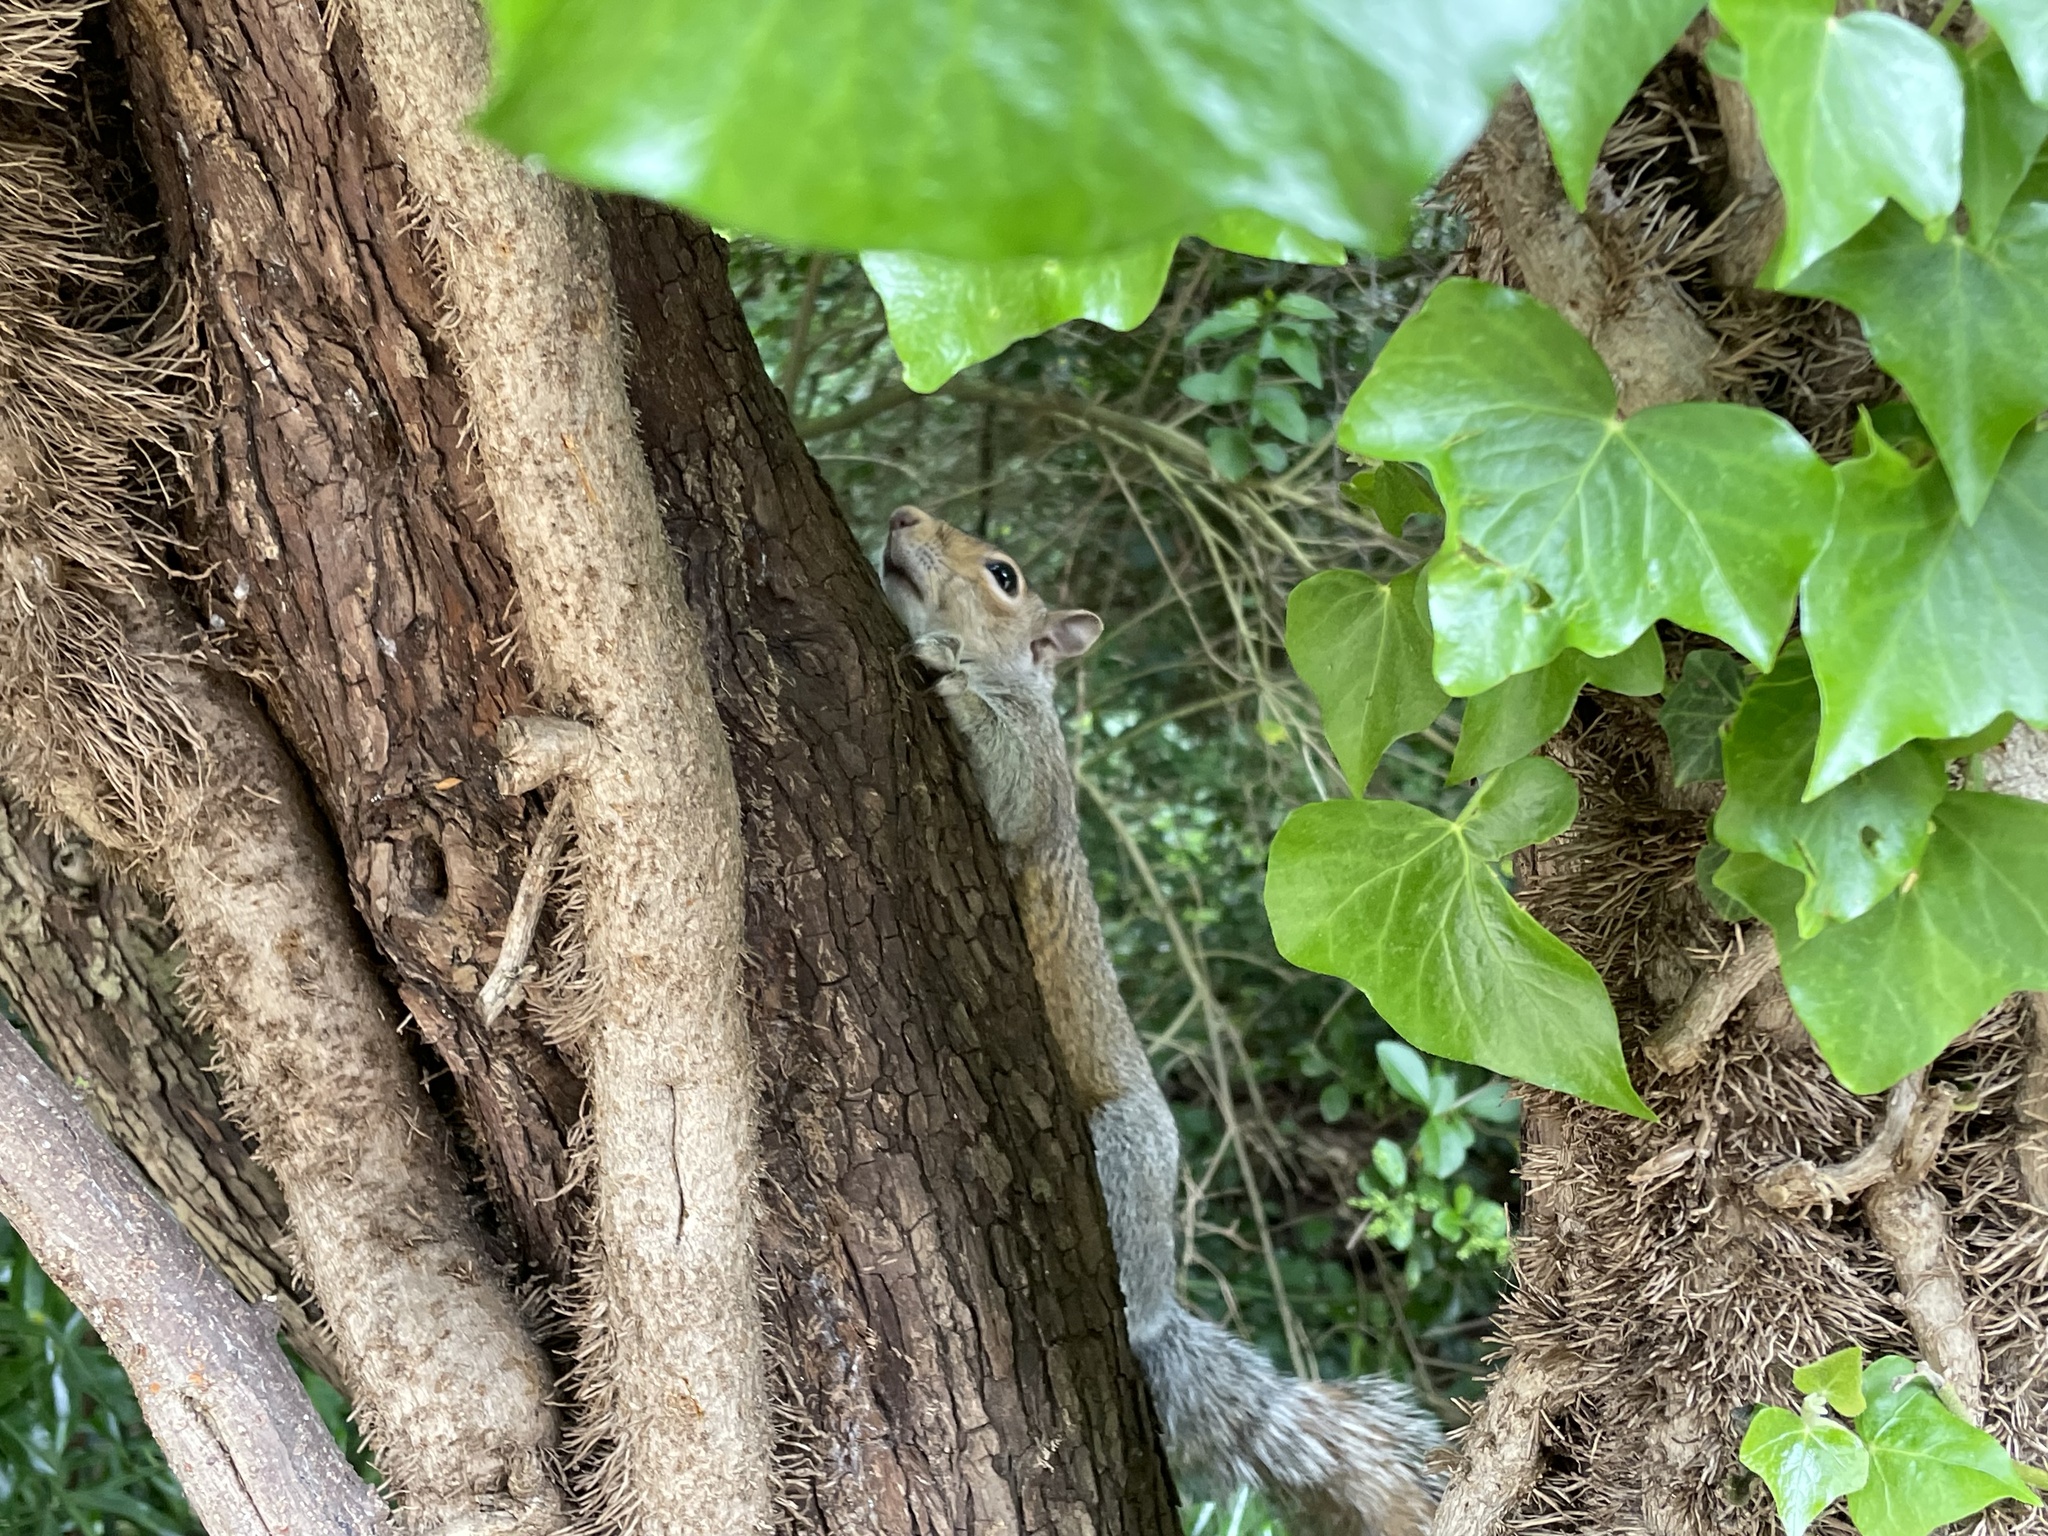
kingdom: Animalia
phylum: Chordata
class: Mammalia
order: Rodentia
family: Sciuridae
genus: Sciurus
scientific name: Sciurus carolinensis
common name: Eastern gray squirrel
